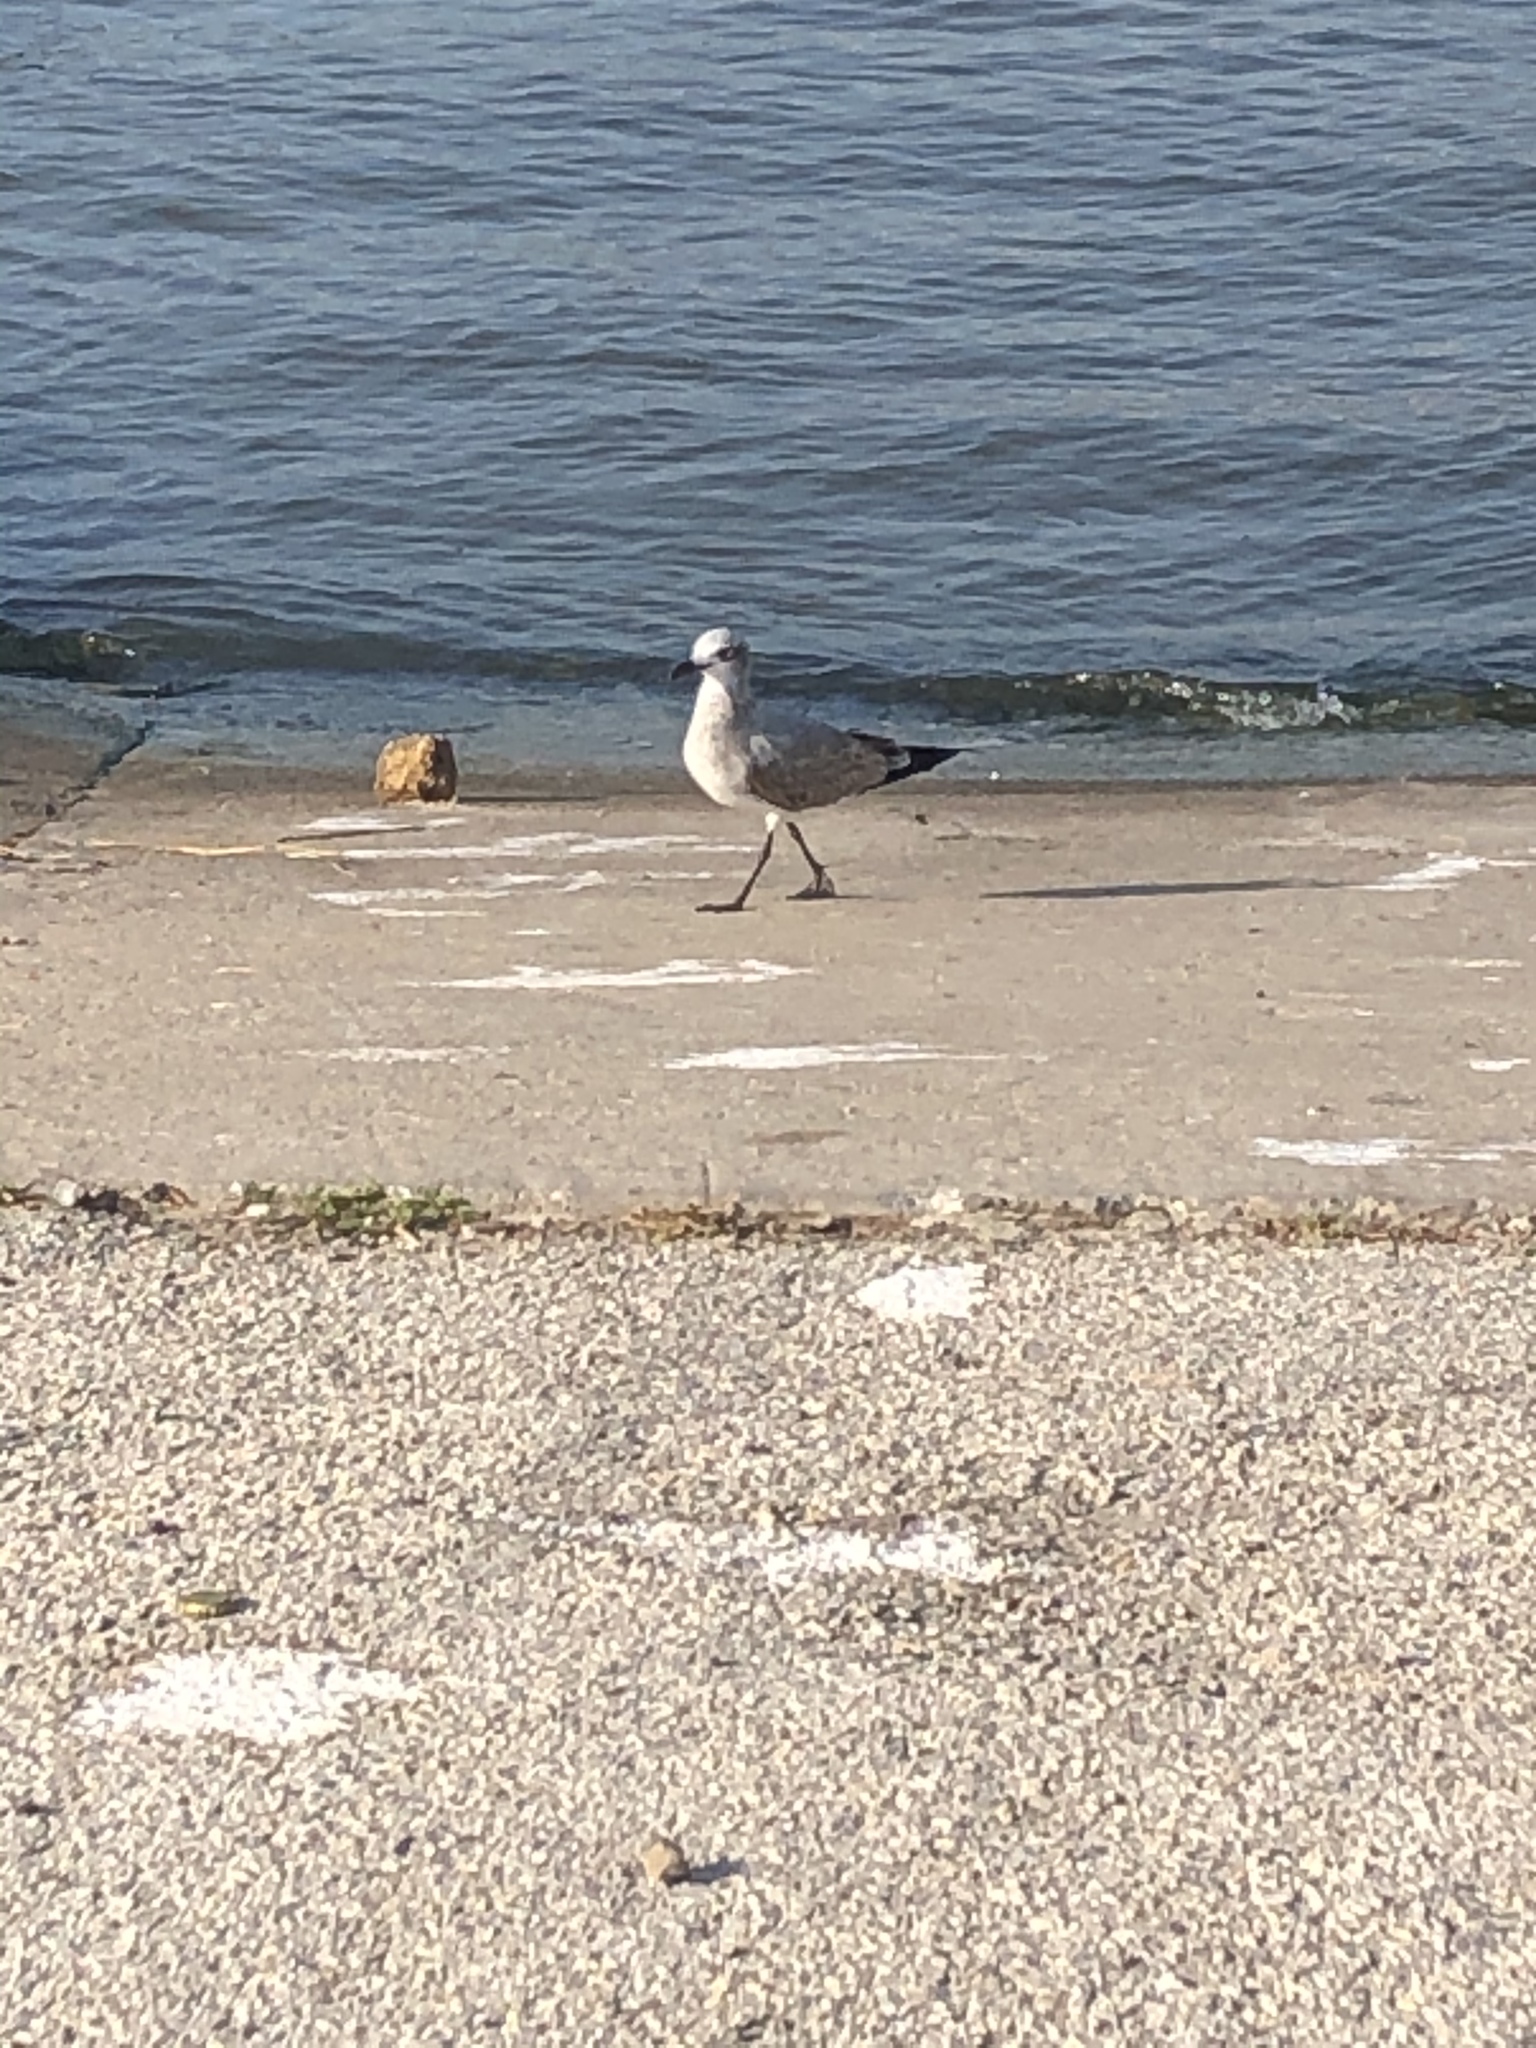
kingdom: Animalia
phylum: Chordata
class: Aves
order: Charadriiformes
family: Laridae
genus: Leucophaeus
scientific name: Leucophaeus atricilla
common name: Laughing gull
